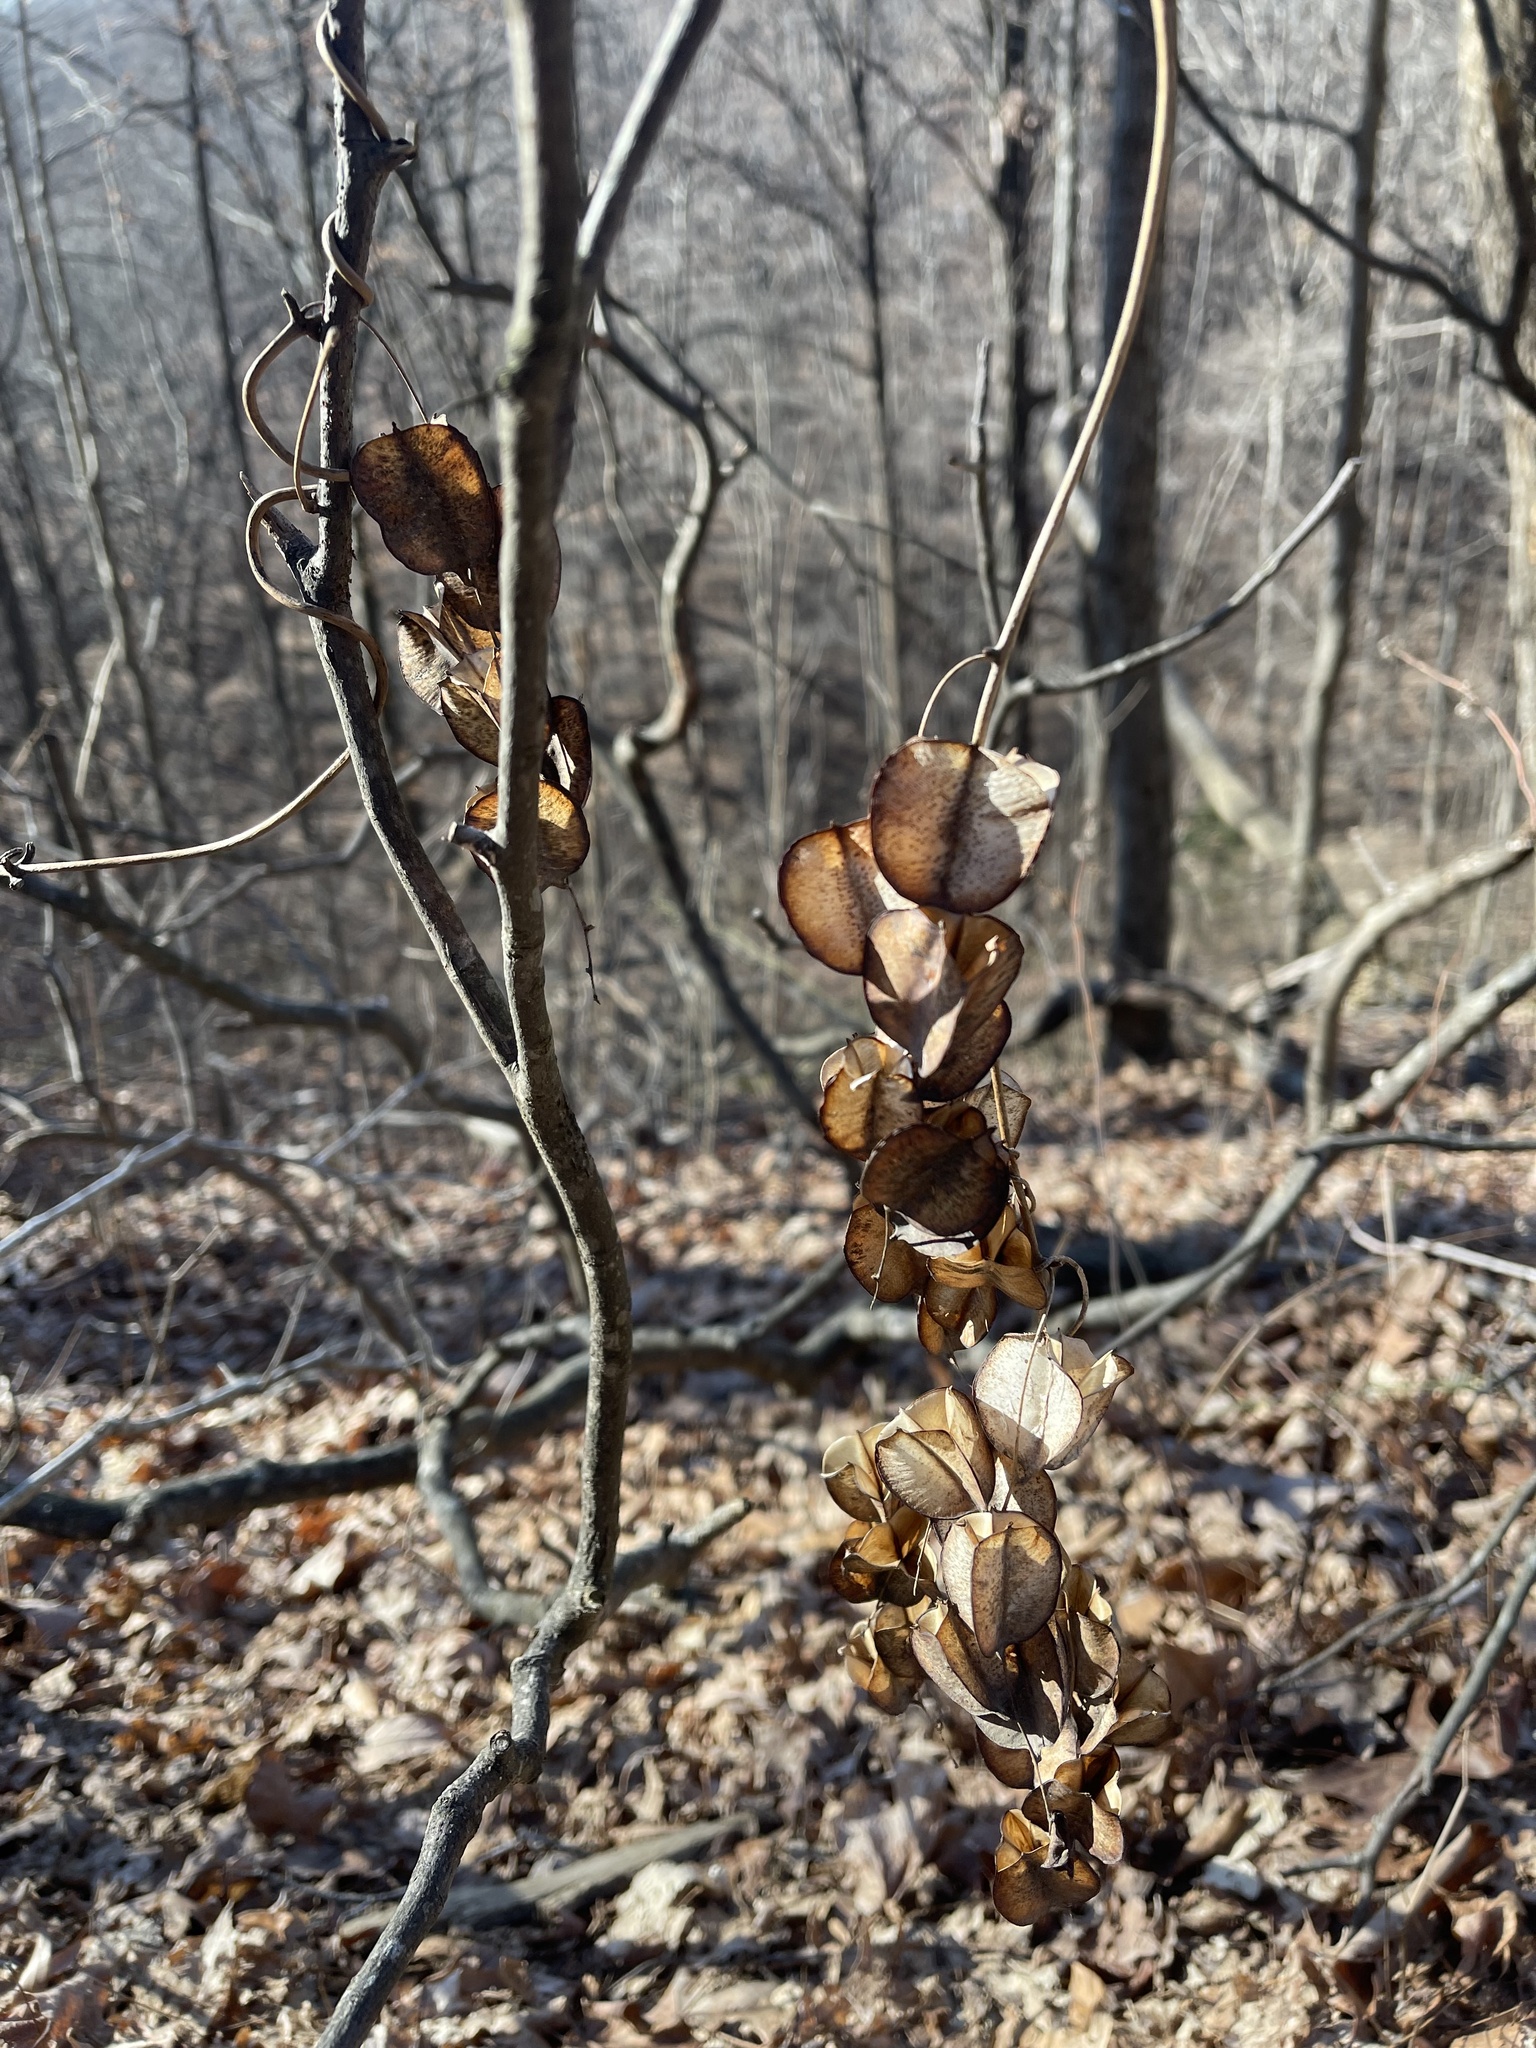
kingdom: Plantae
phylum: Tracheophyta
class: Liliopsida
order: Dioscoreales
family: Dioscoreaceae
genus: Dioscorea
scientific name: Dioscorea villosa
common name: Wild yam
